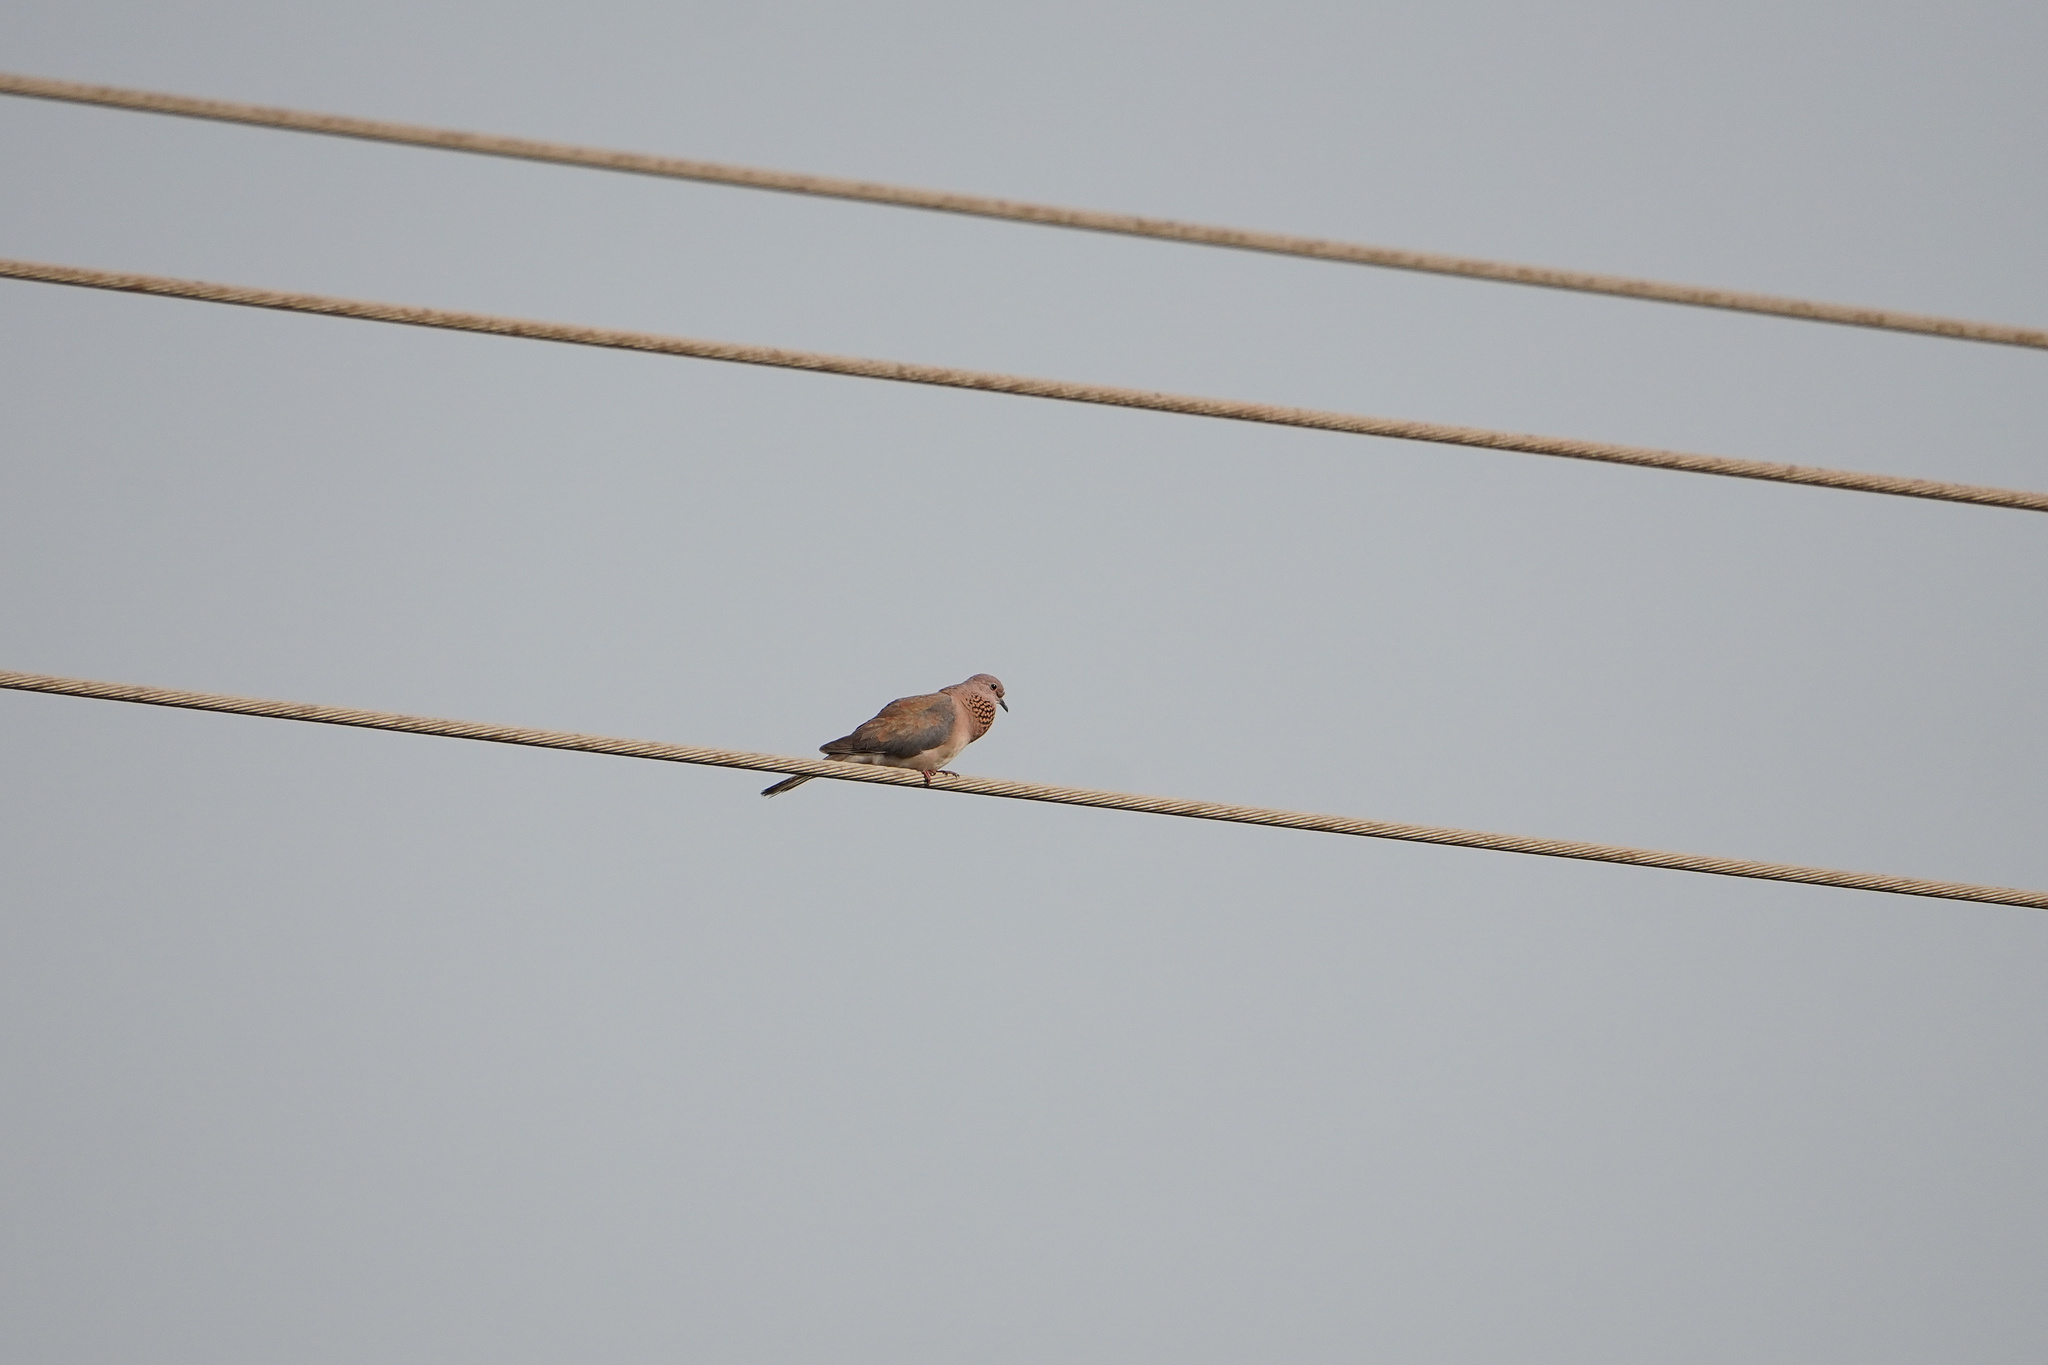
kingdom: Animalia
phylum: Chordata
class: Aves
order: Columbiformes
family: Columbidae
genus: Spilopelia
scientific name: Spilopelia senegalensis
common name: Laughing dove
